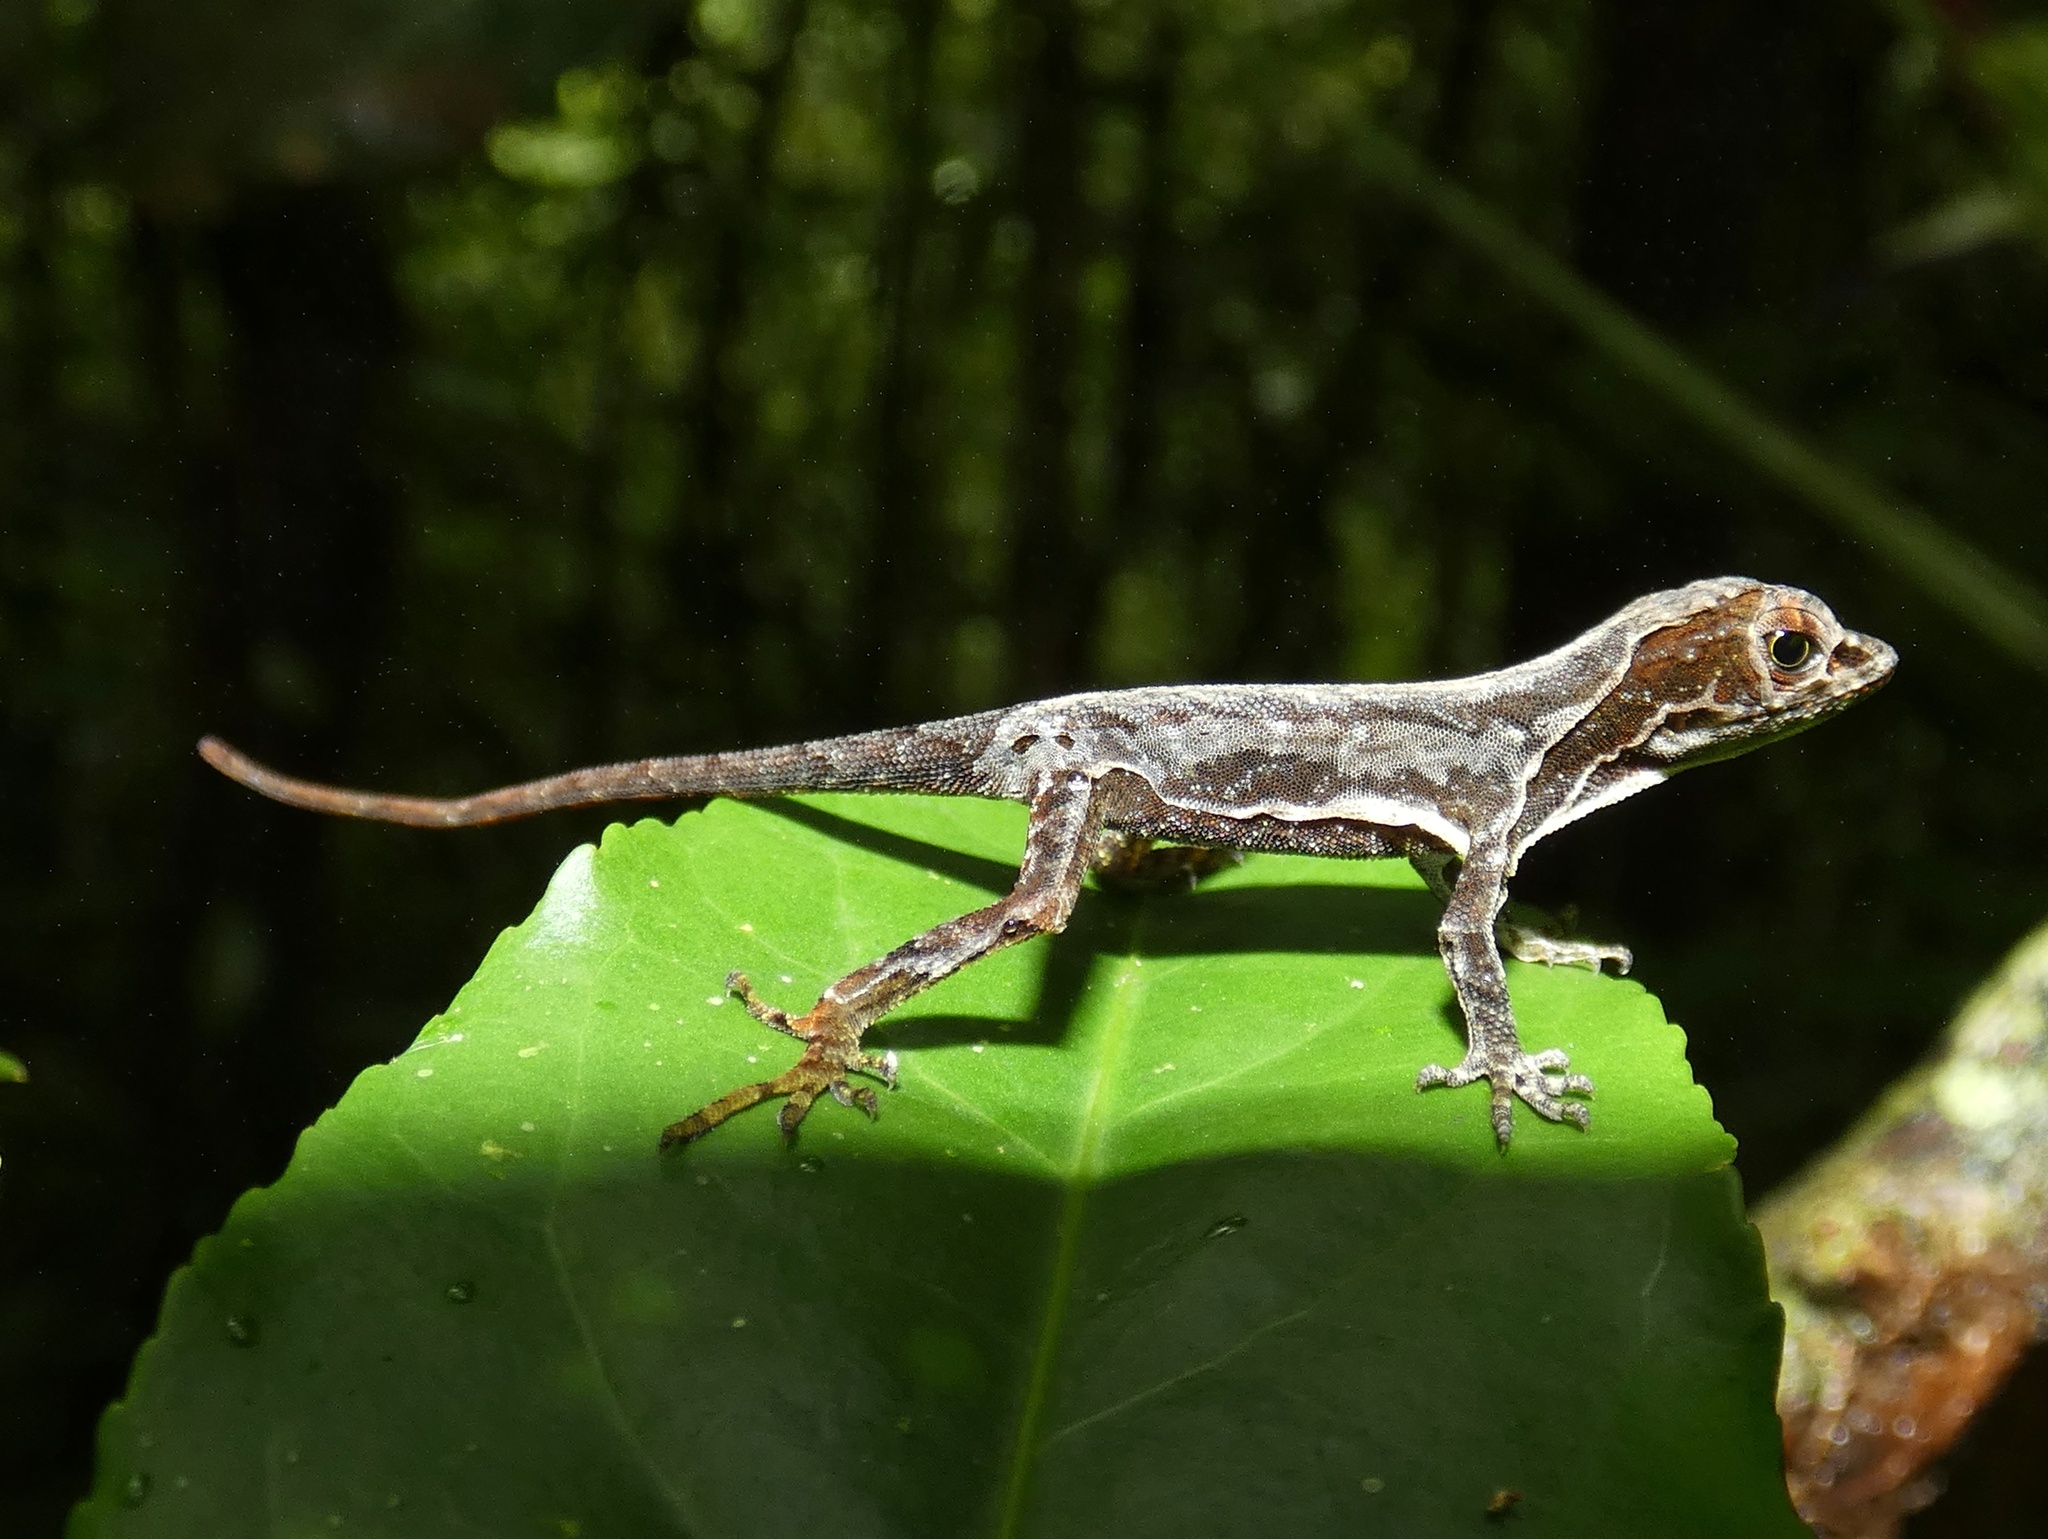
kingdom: Animalia
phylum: Chordata
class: Squamata
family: Dactyloidae
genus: Anolis
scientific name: Anolis capito
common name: Bighead anole
